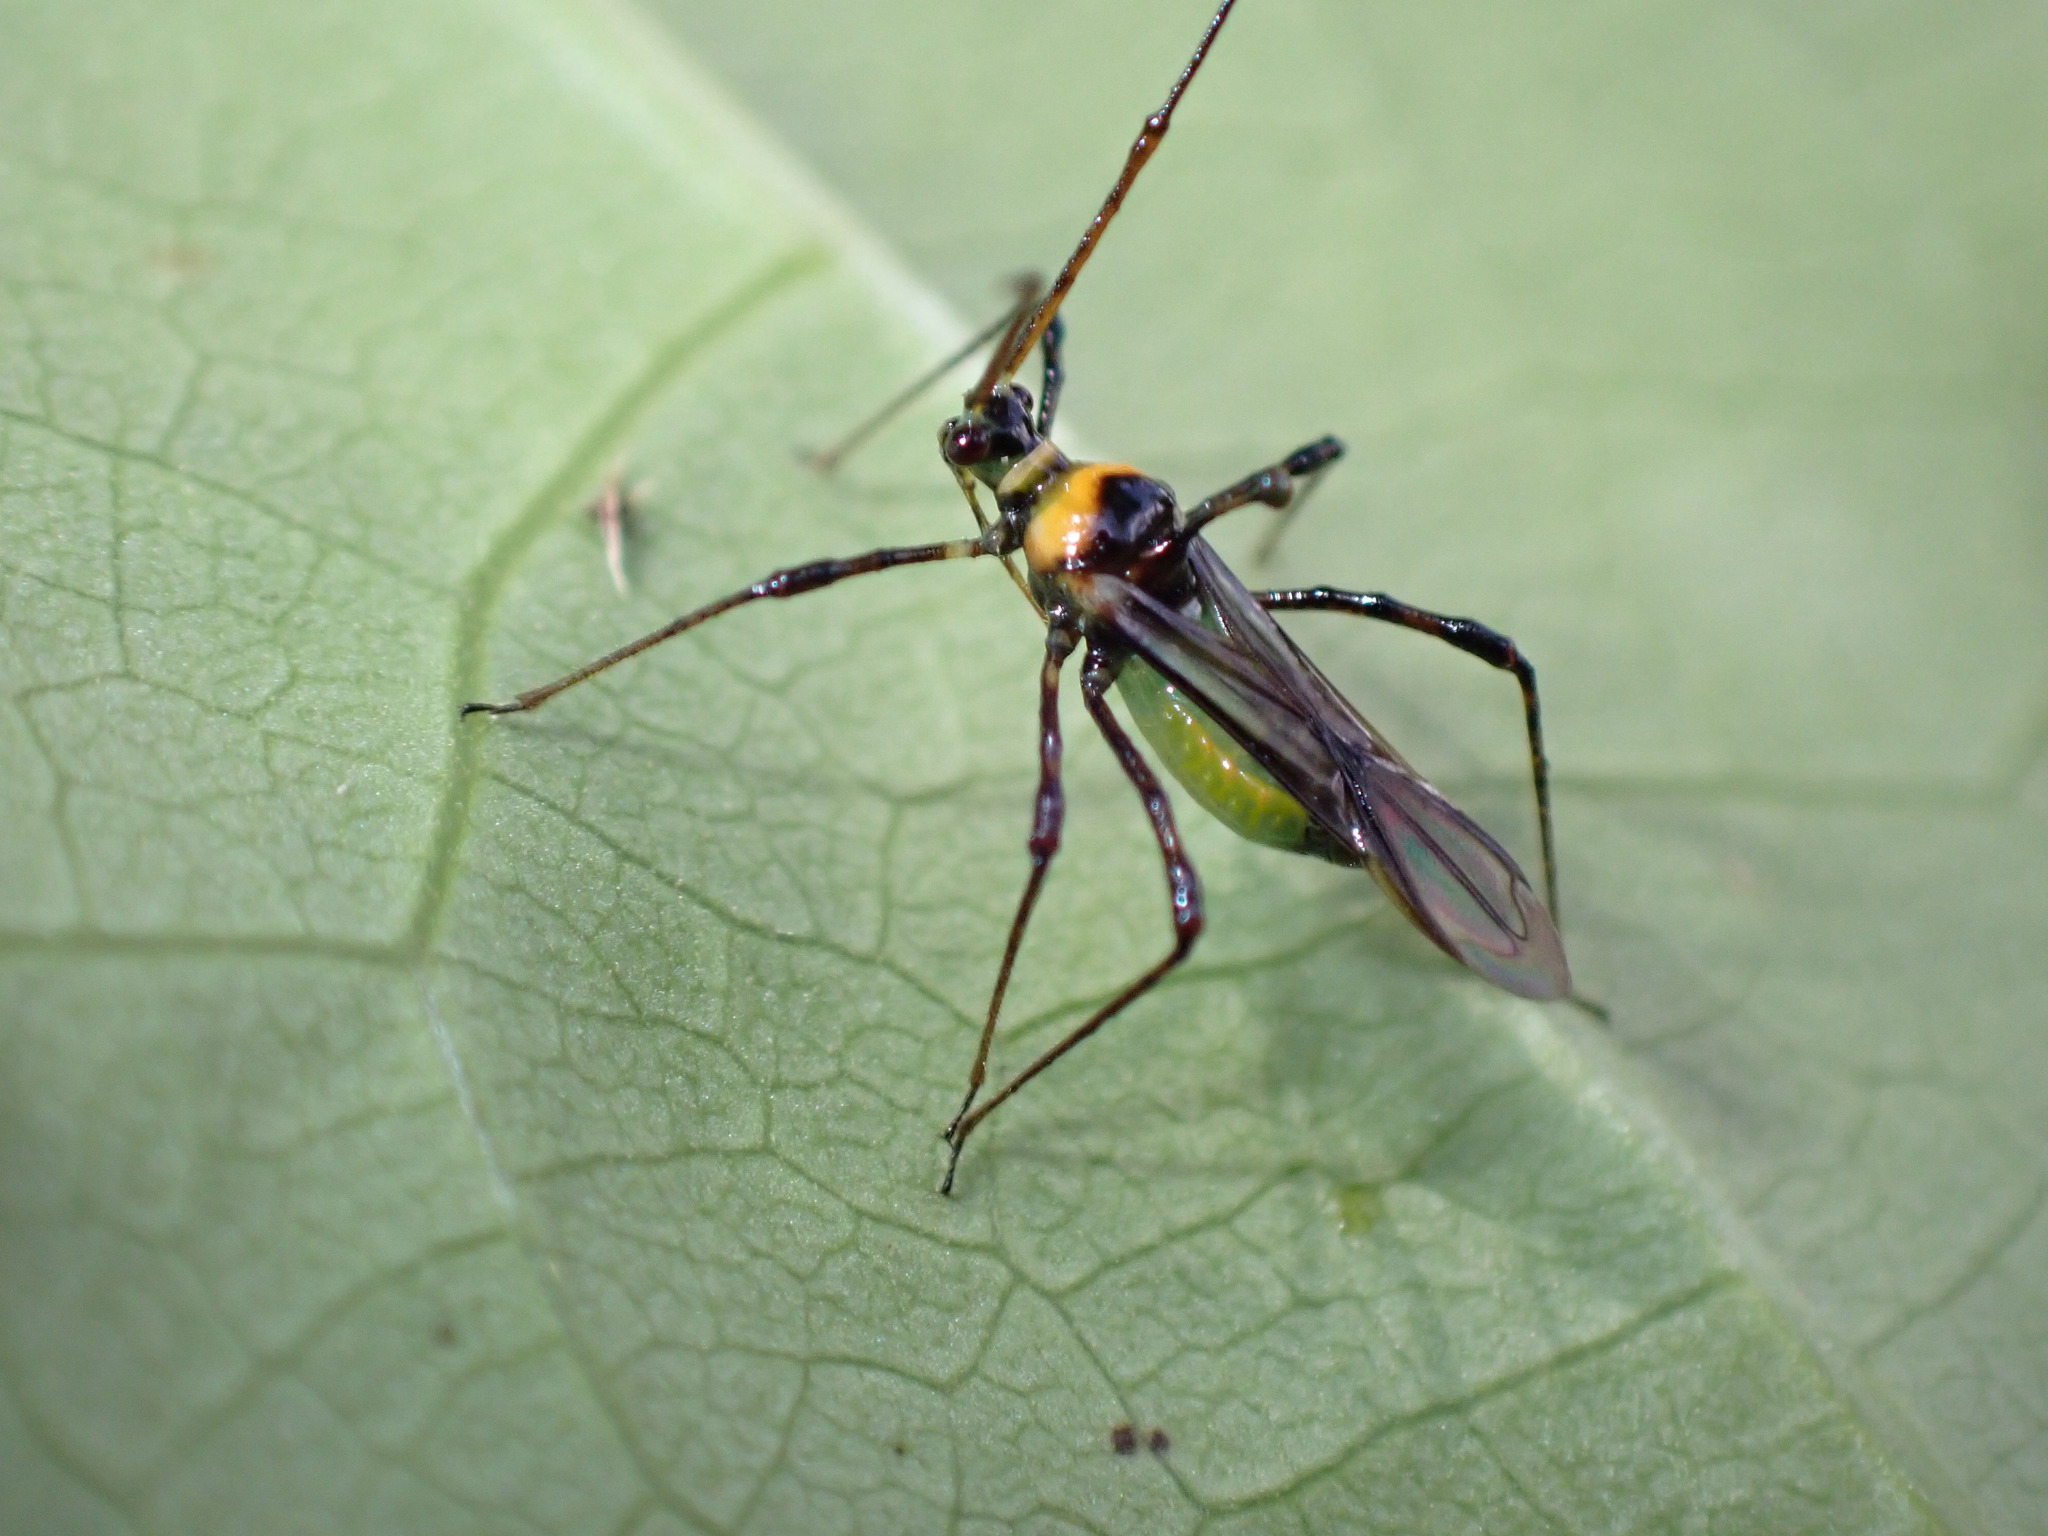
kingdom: Animalia
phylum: Arthropoda
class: Insecta
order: Hemiptera
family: Miridae
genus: Helopeltis
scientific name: Helopeltis theivora
